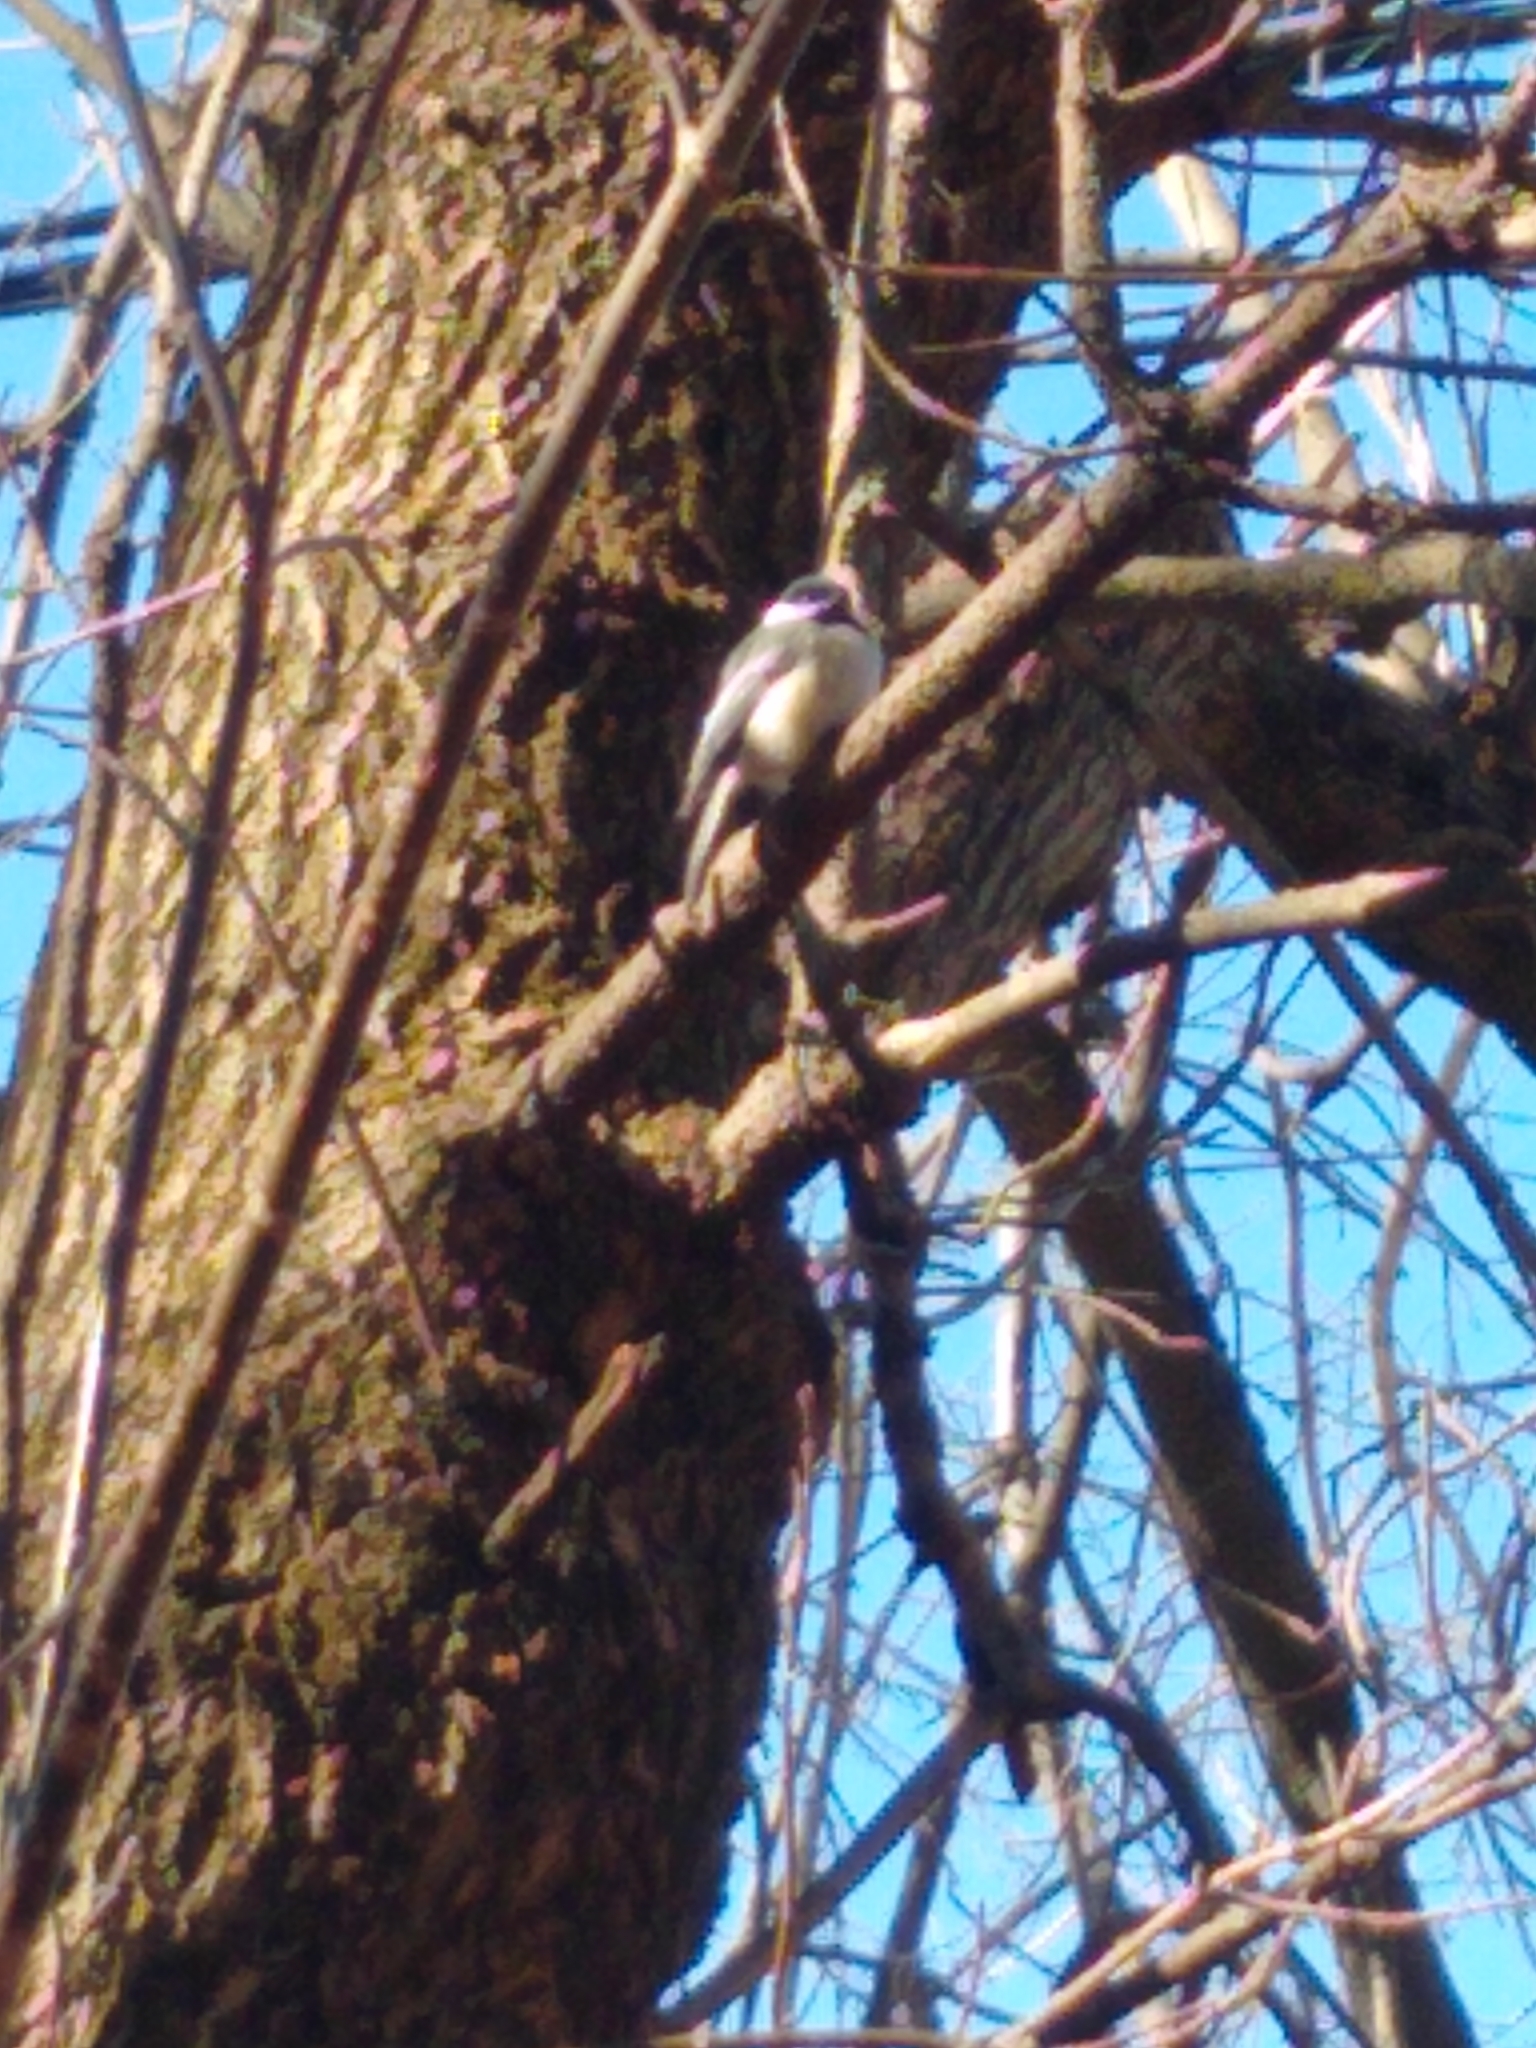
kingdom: Animalia
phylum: Chordata
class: Aves
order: Passeriformes
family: Paridae
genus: Poecile
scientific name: Poecile atricapillus
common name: Black-capped chickadee
